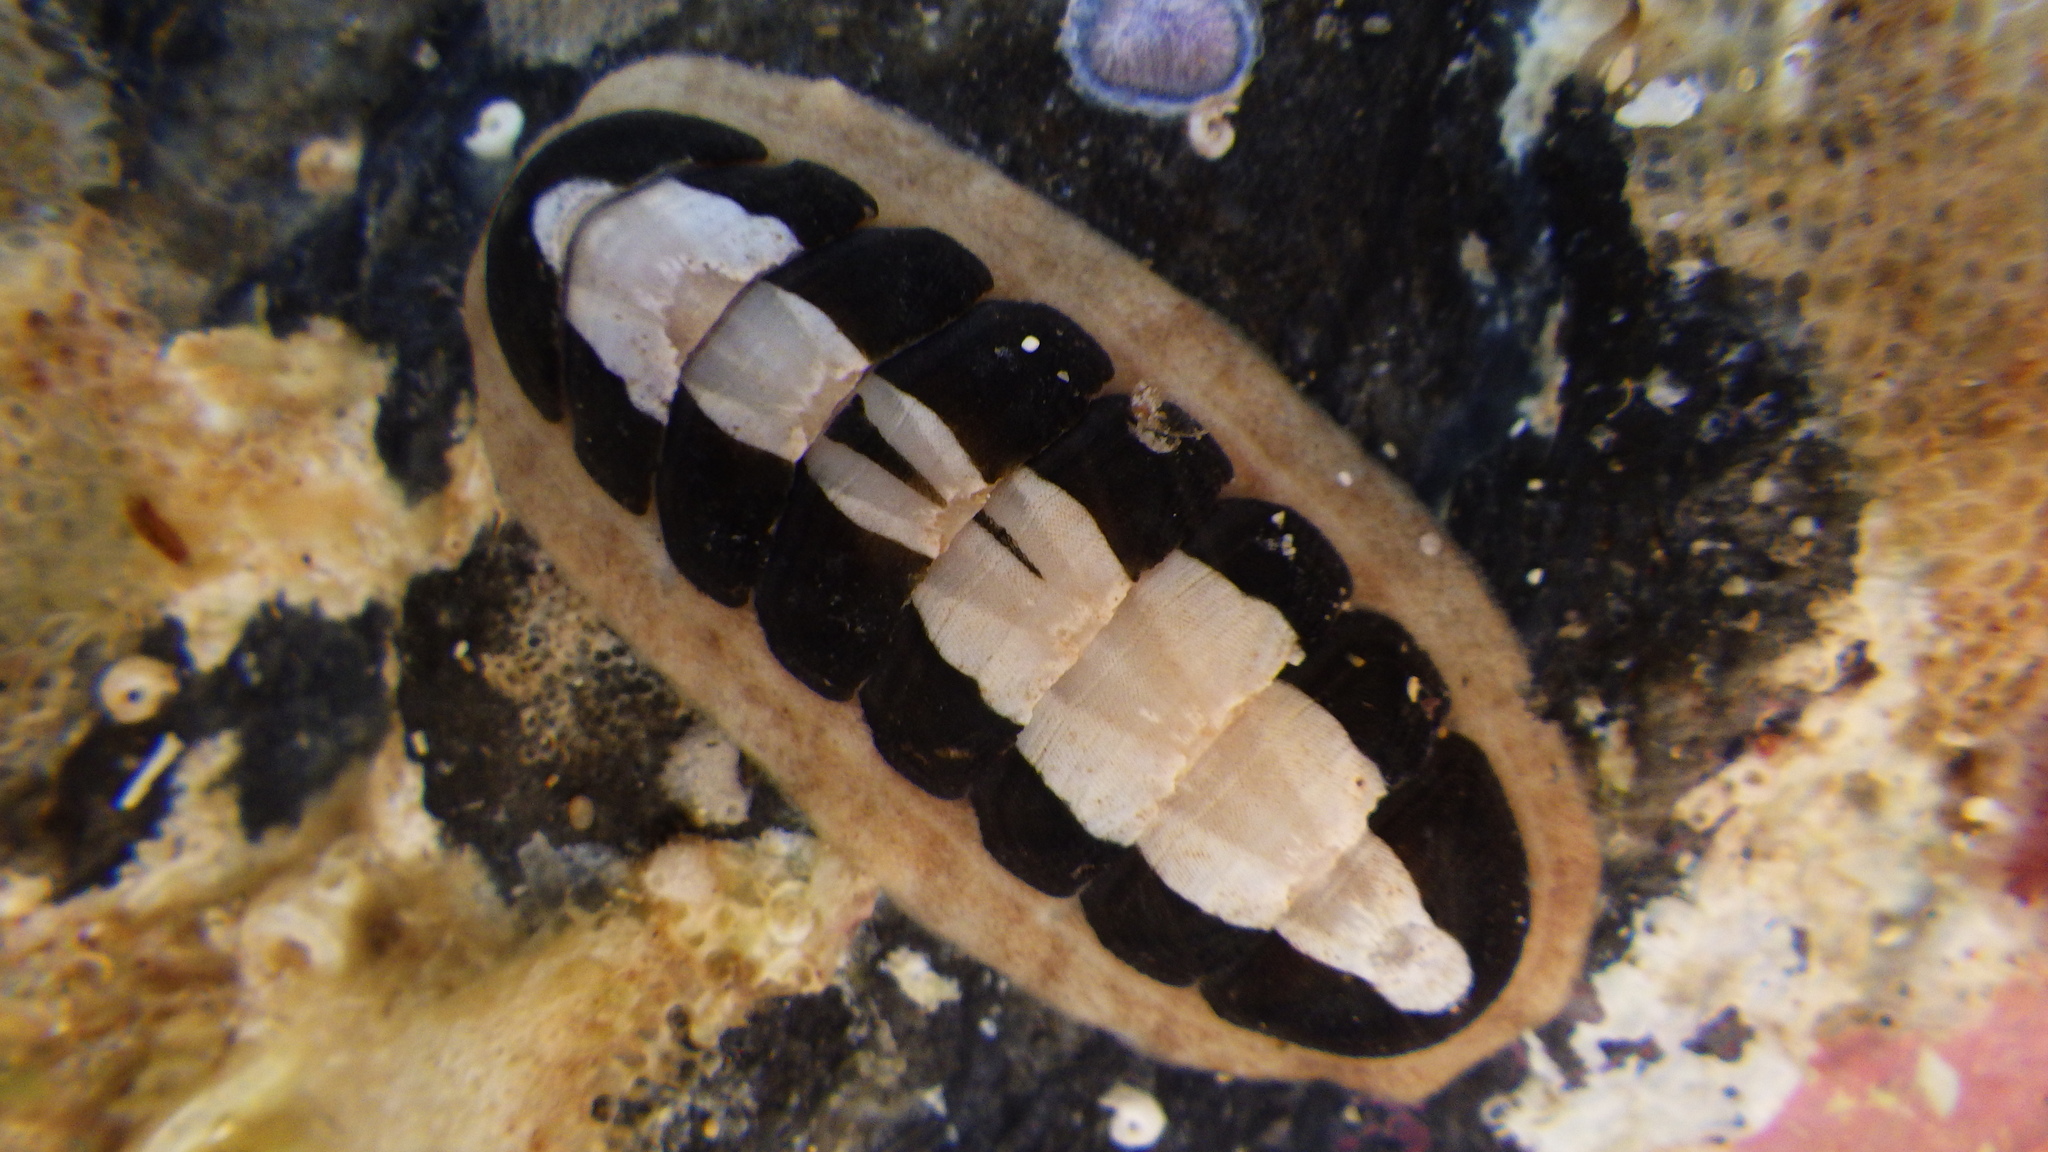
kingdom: Animalia
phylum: Mollusca
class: Polyplacophora
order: Chitonida
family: Ischnochitonidae
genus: Ischnochiton
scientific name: Ischnochiton maorianus
